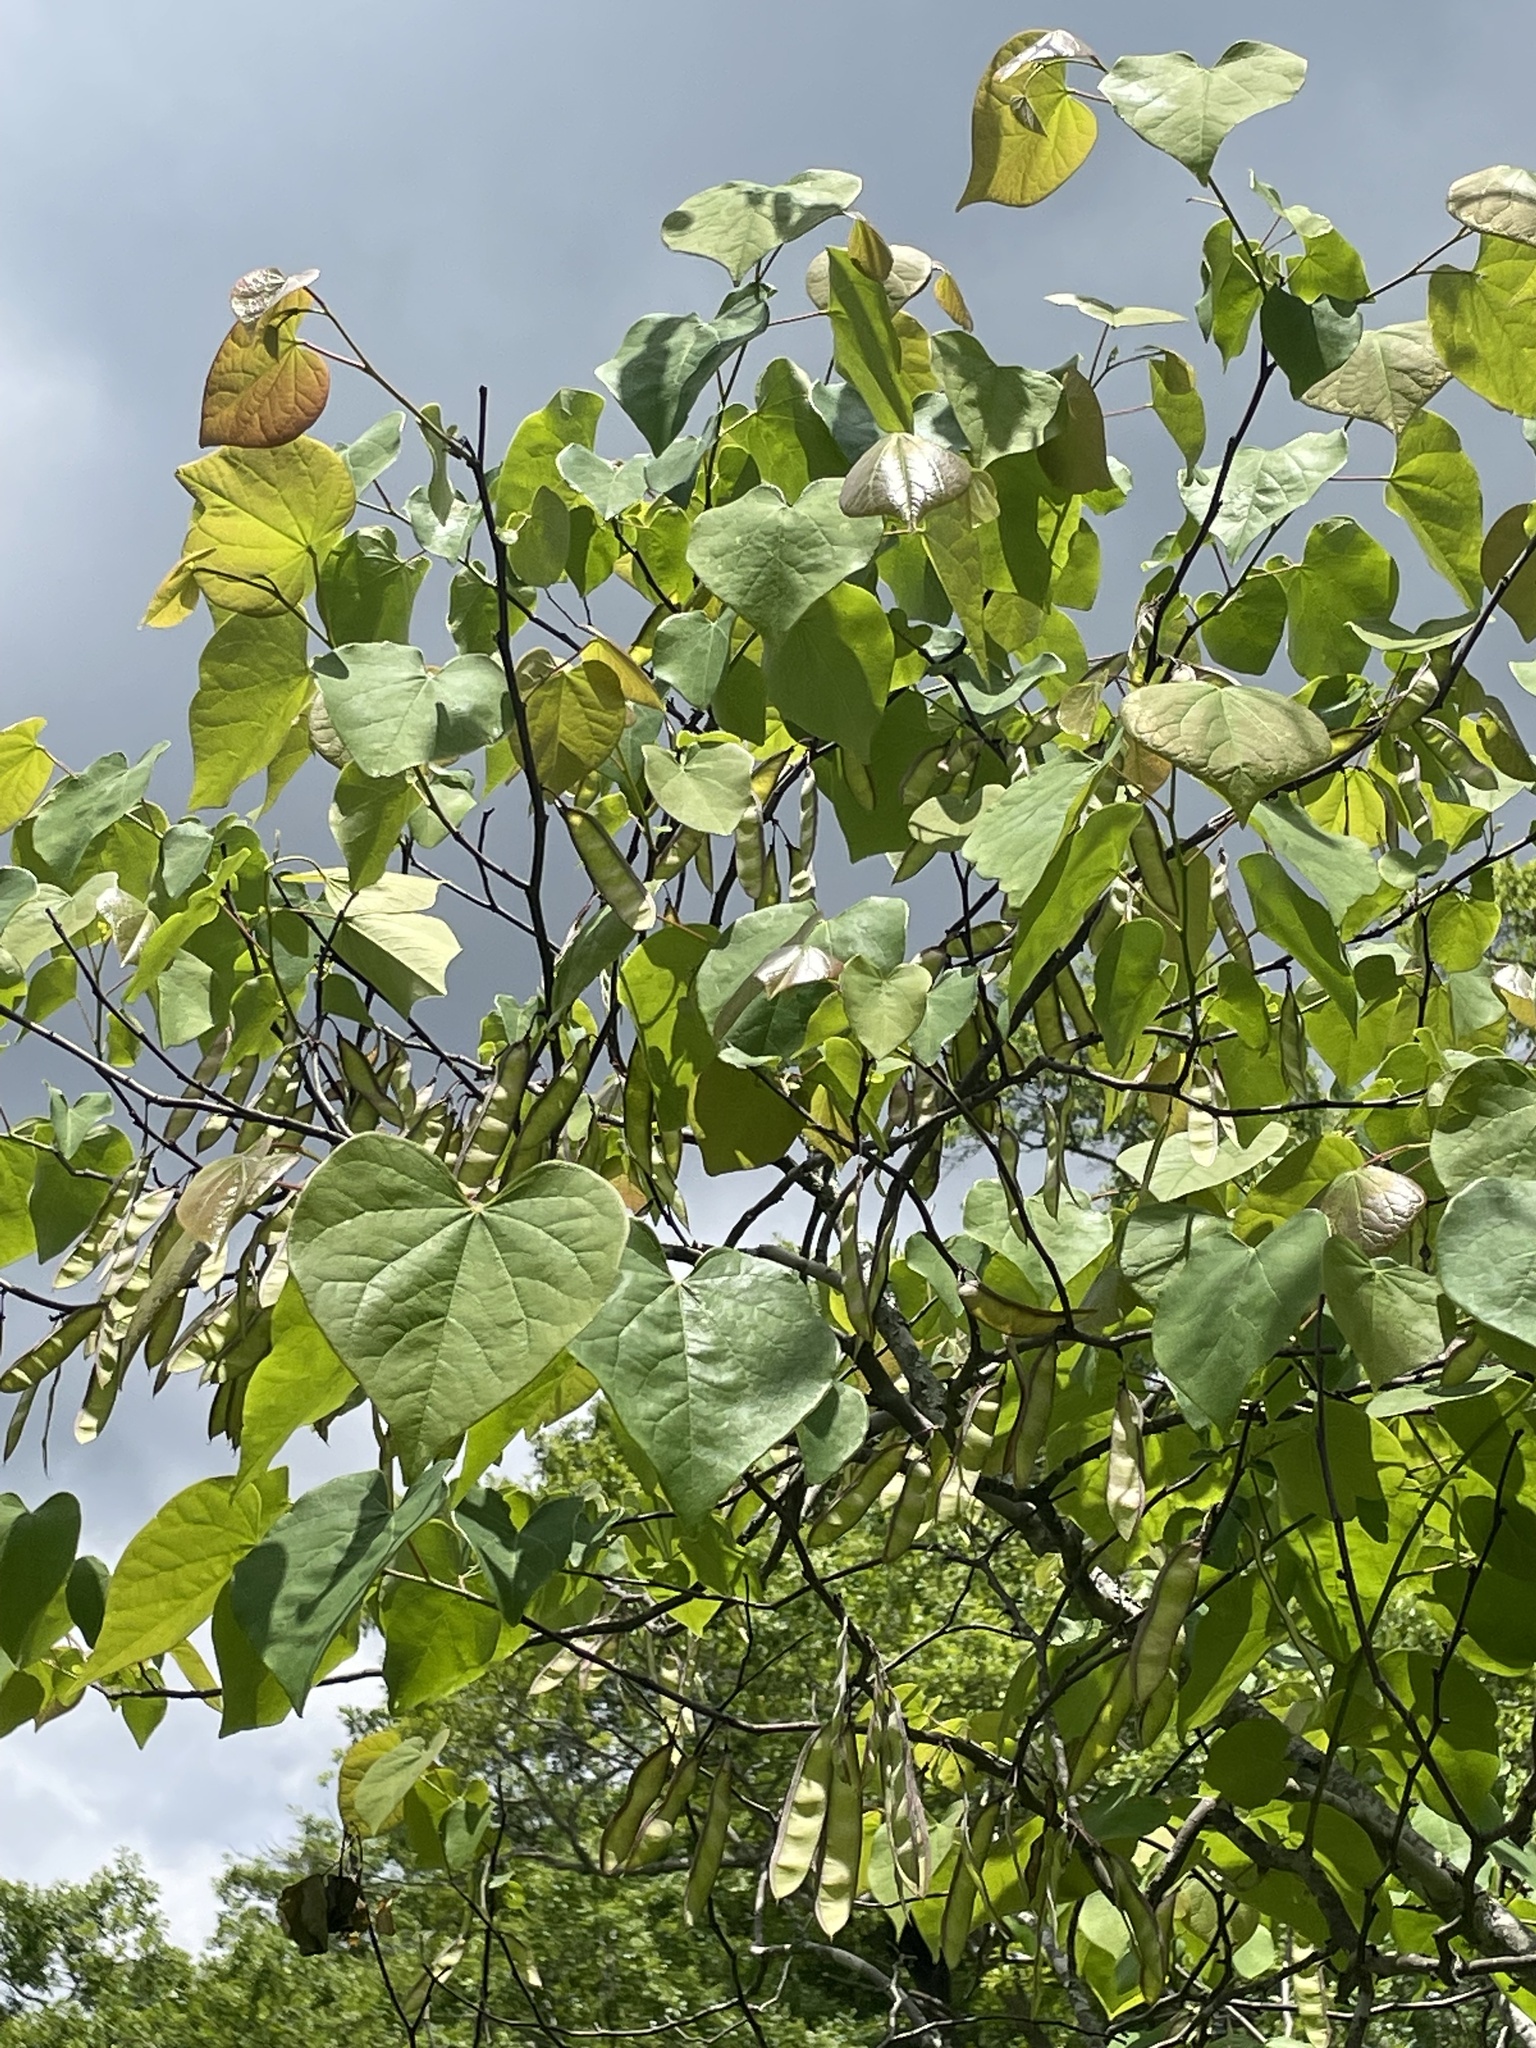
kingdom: Plantae
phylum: Tracheophyta
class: Magnoliopsida
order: Fabales
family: Fabaceae
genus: Cercis
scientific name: Cercis canadensis
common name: Eastern redbud
